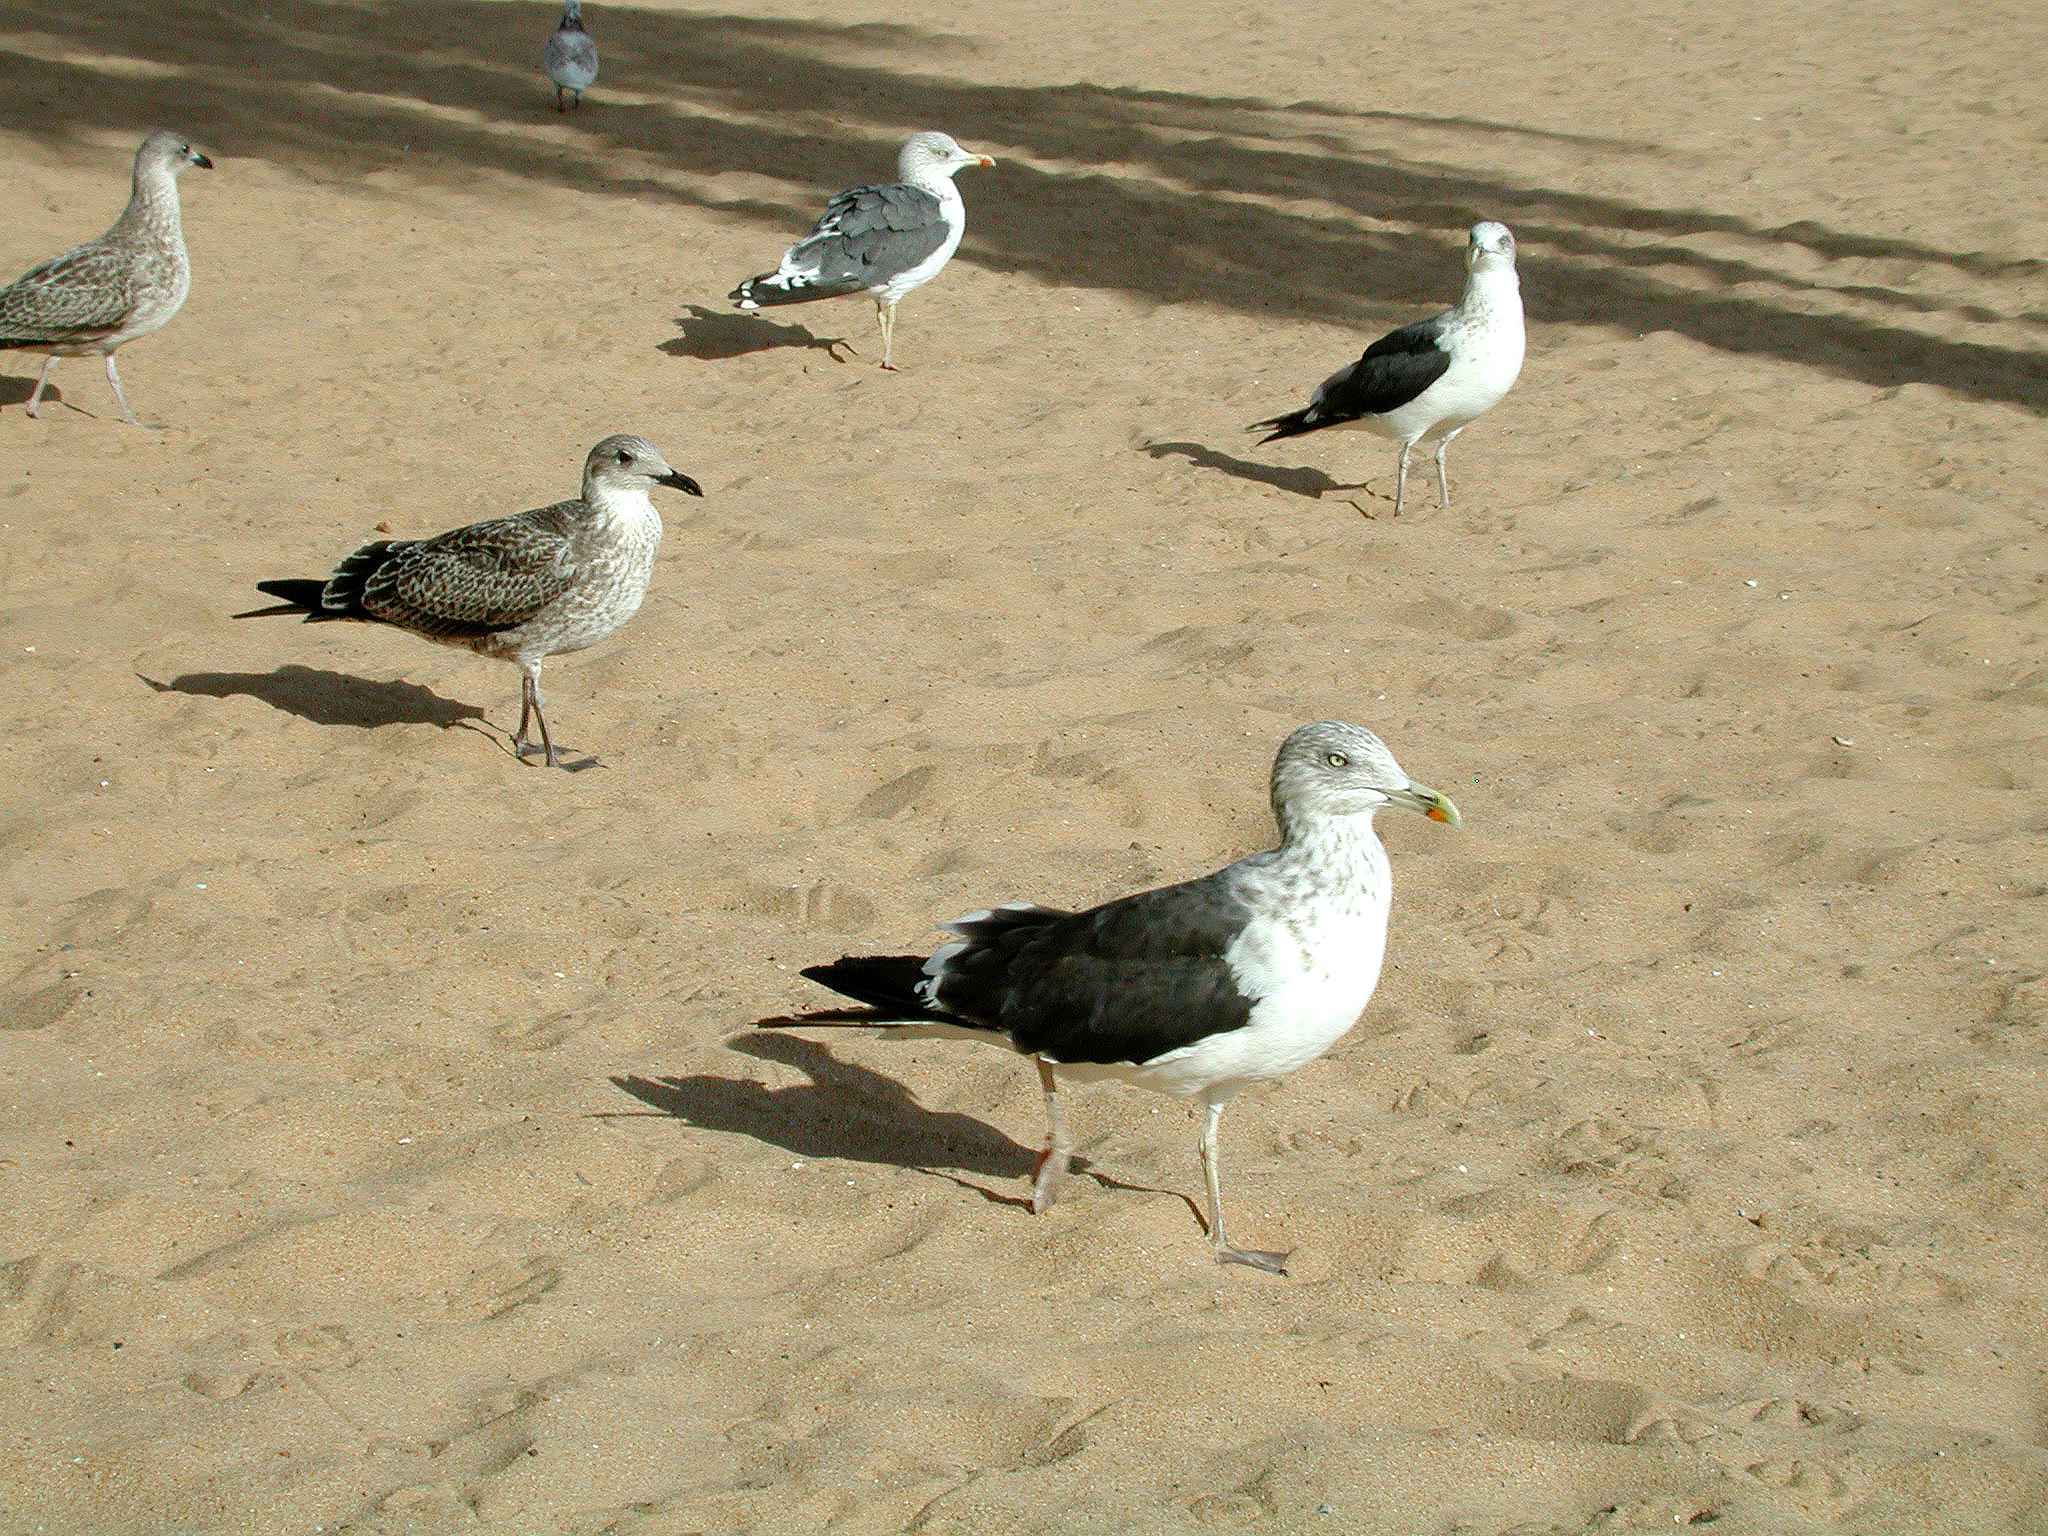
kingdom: Animalia
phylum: Chordata
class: Aves
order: Charadriiformes
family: Laridae
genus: Larus
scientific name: Larus fuscus
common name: Lesser black-backed gull
